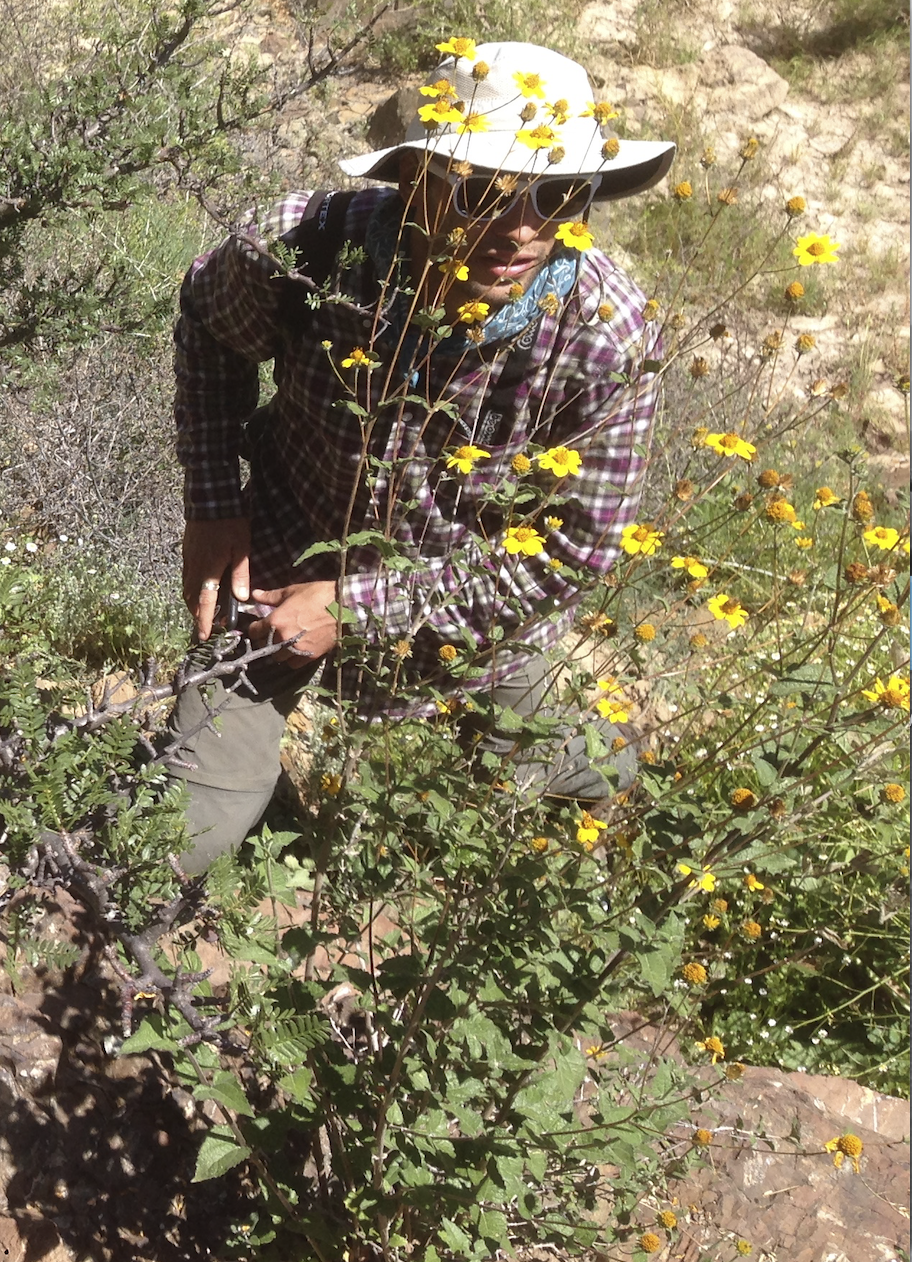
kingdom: Plantae
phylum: Tracheophyta
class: Magnoliopsida
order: Asterales
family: Asteraceae
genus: Bahiopsis
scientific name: Bahiopsis triangularis
